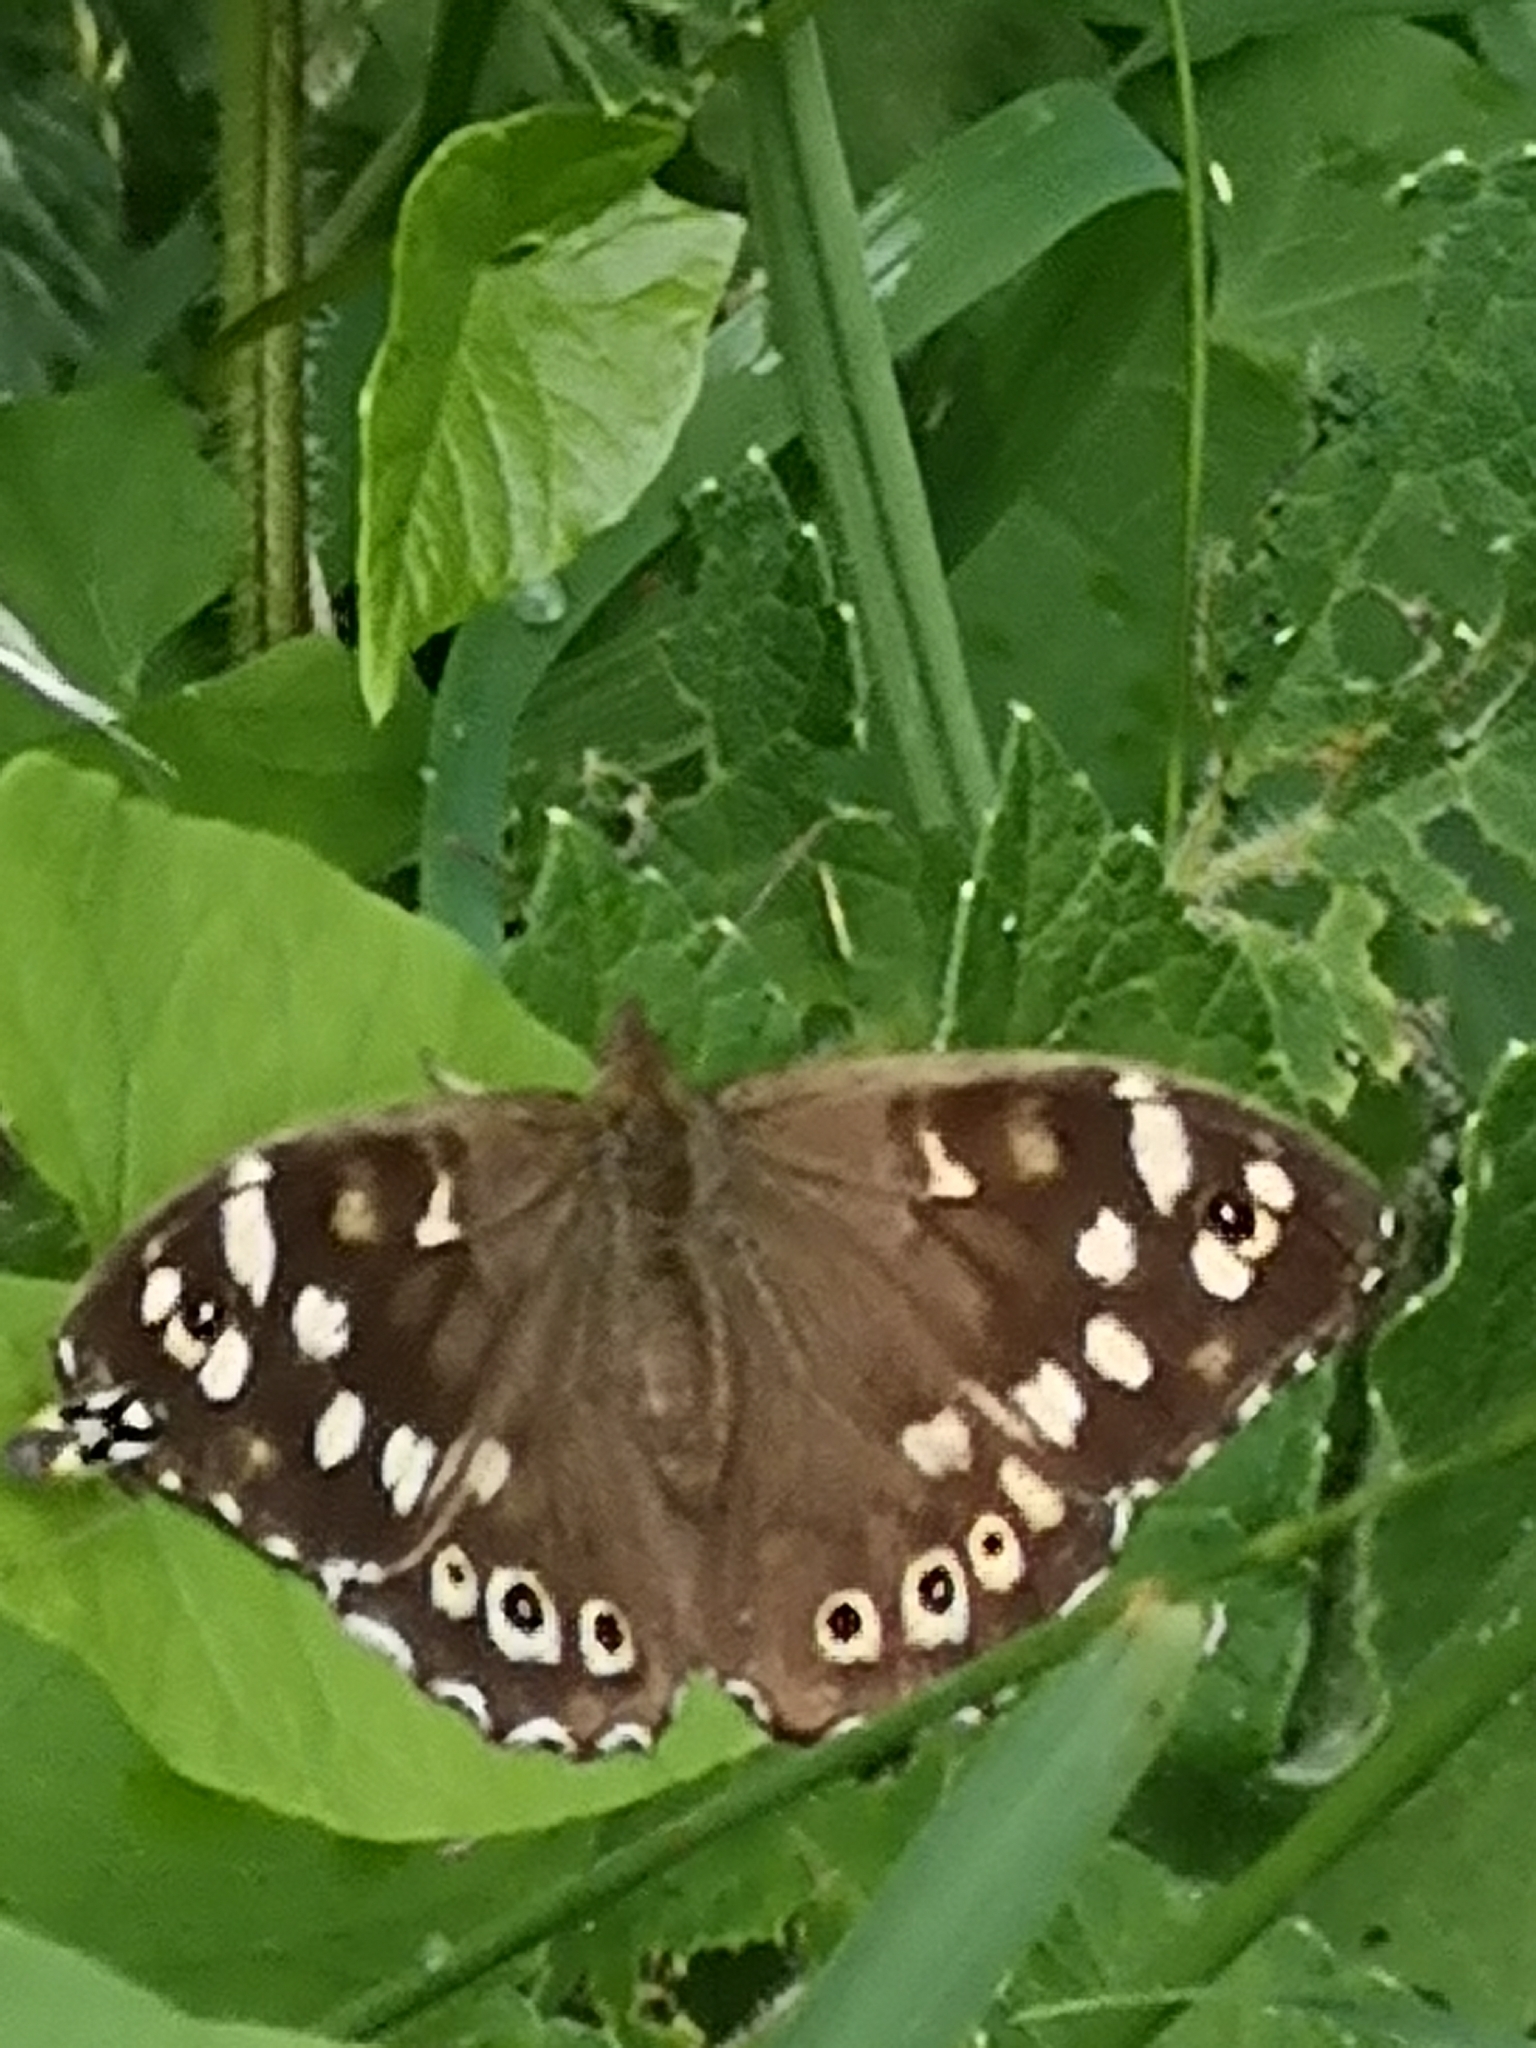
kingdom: Animalia
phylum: Arthropoda
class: Insecta
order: Lepidoptera
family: Nymphalidae
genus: Pararge
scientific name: Pararge aegeria
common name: Speckled wood
